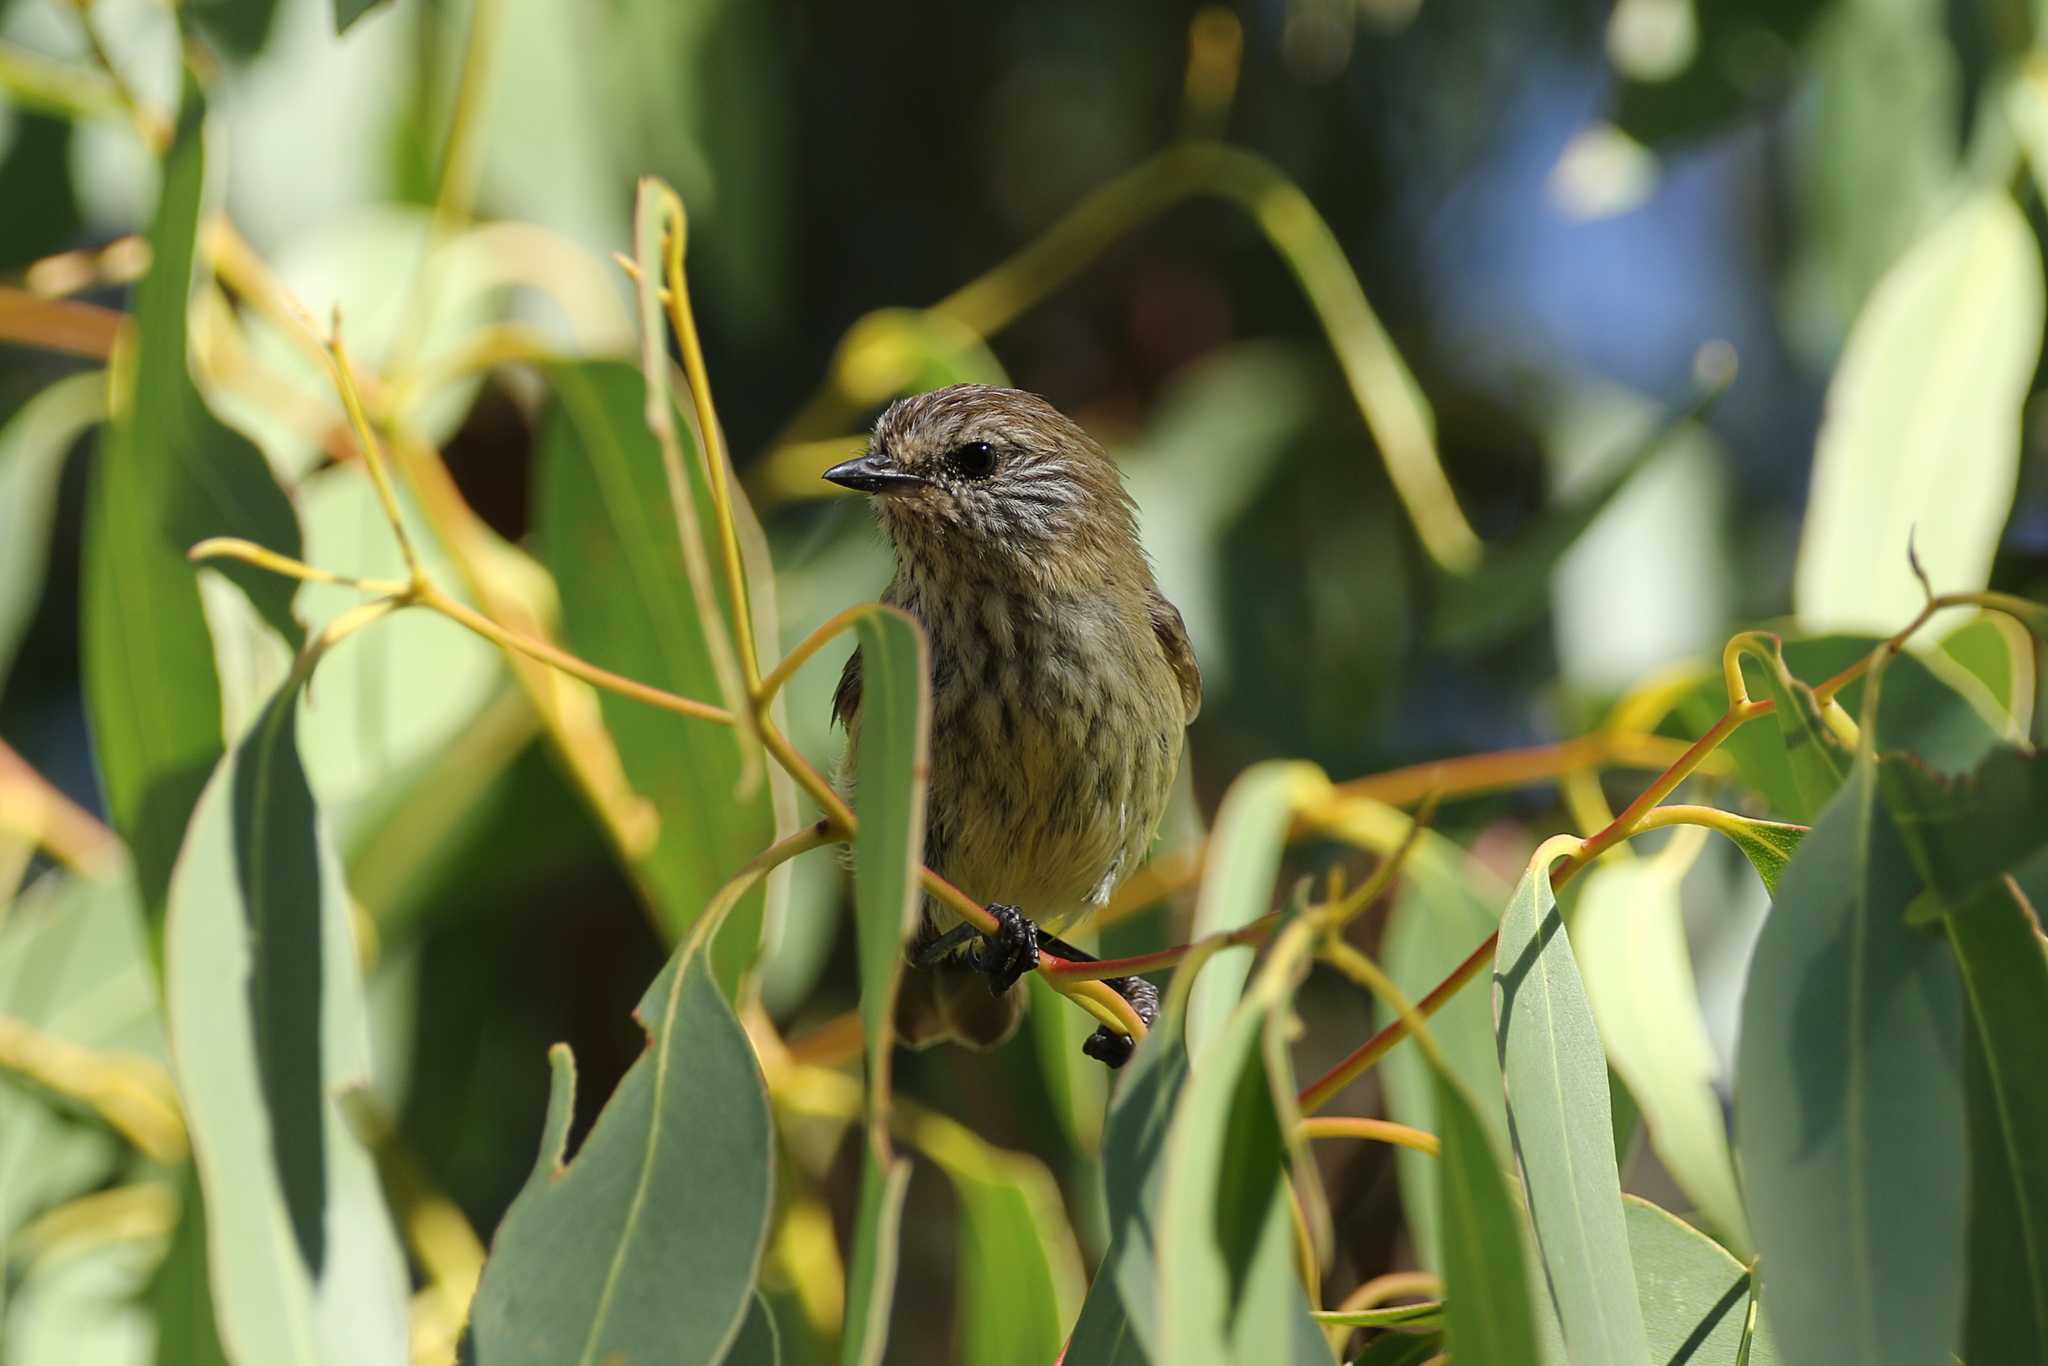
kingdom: Animalia
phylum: Chordata
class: Aves
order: Passeriformes
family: Acanthizidae
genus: Acanthiza
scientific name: Acanthiza lineata
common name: Striated thornbill
